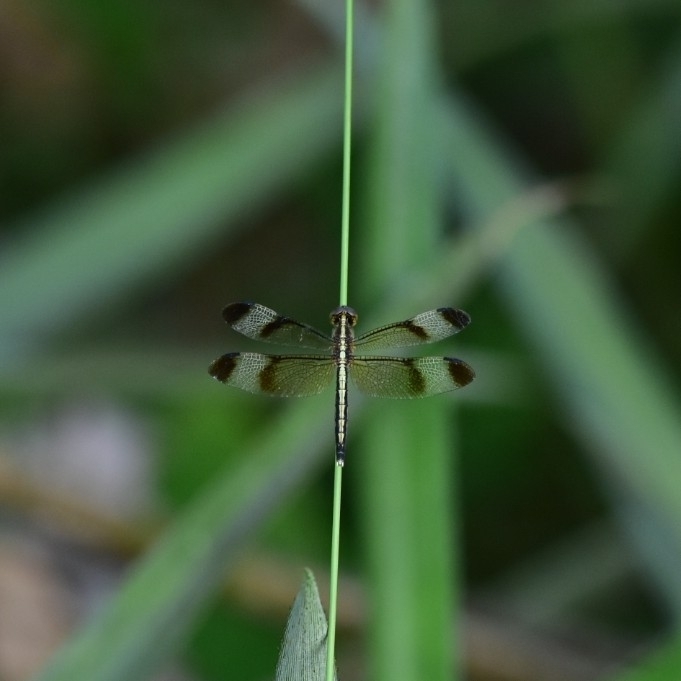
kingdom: Animalia
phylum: Arthropoda
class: Insecta
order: Odonata
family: Libellulidae
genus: Neurothemis
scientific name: Neurothemis tullia
